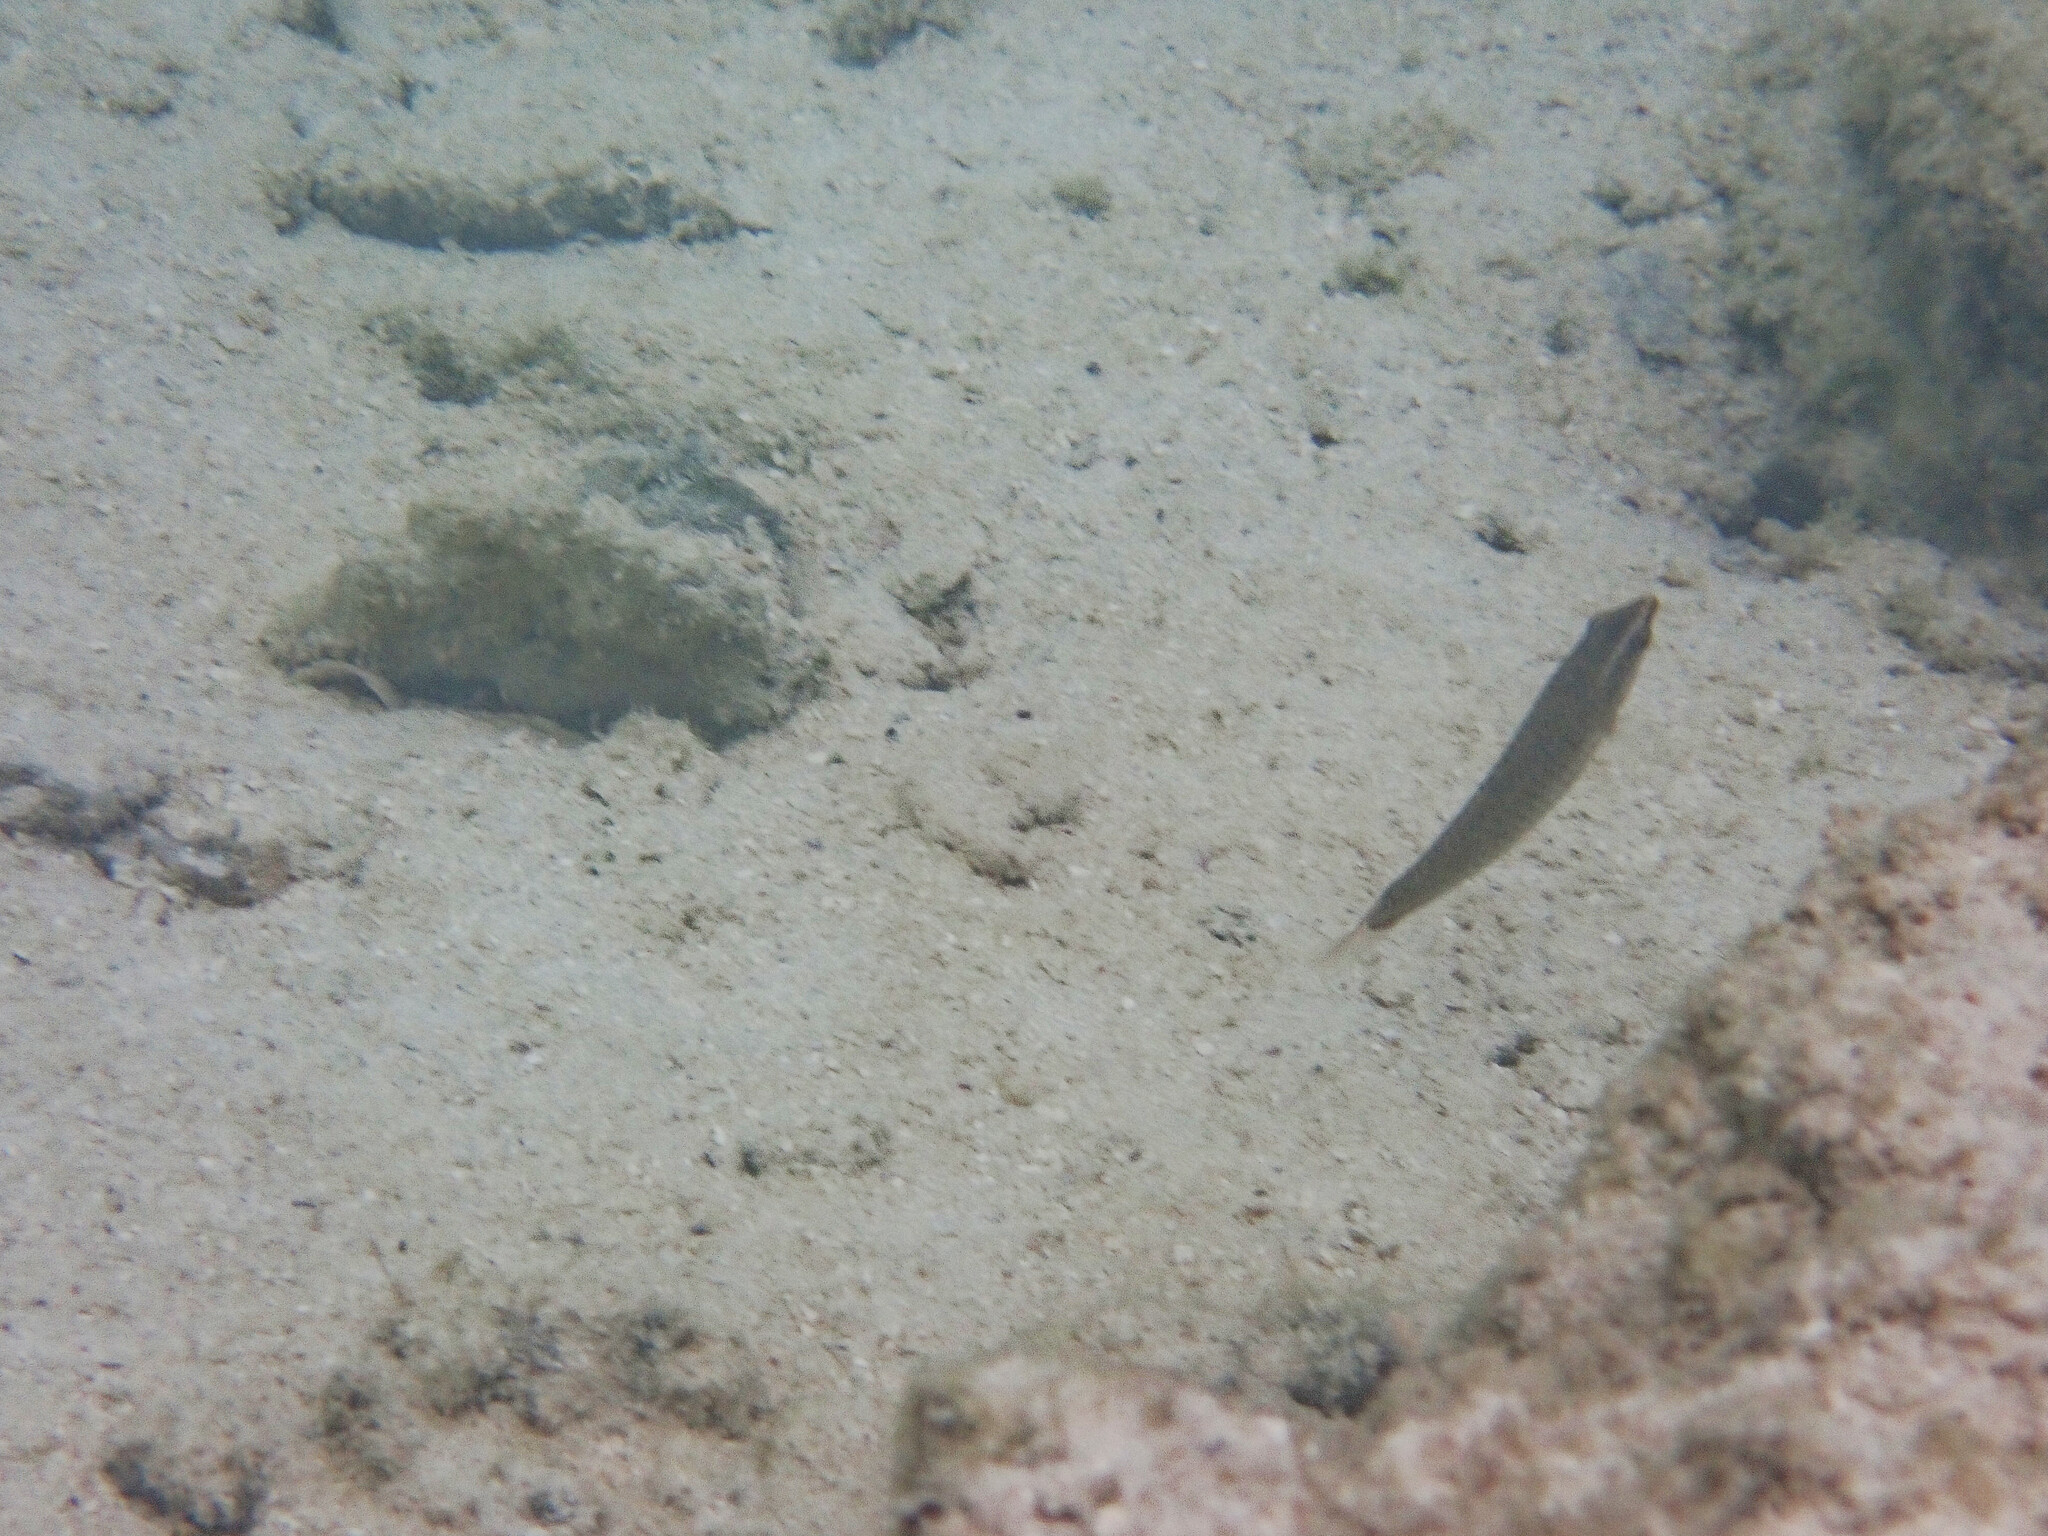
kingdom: Animalia
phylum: Chordata
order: Perciformes
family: Labridae
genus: Halichoeres
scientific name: Halichoeres argus
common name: Argus wrasse
